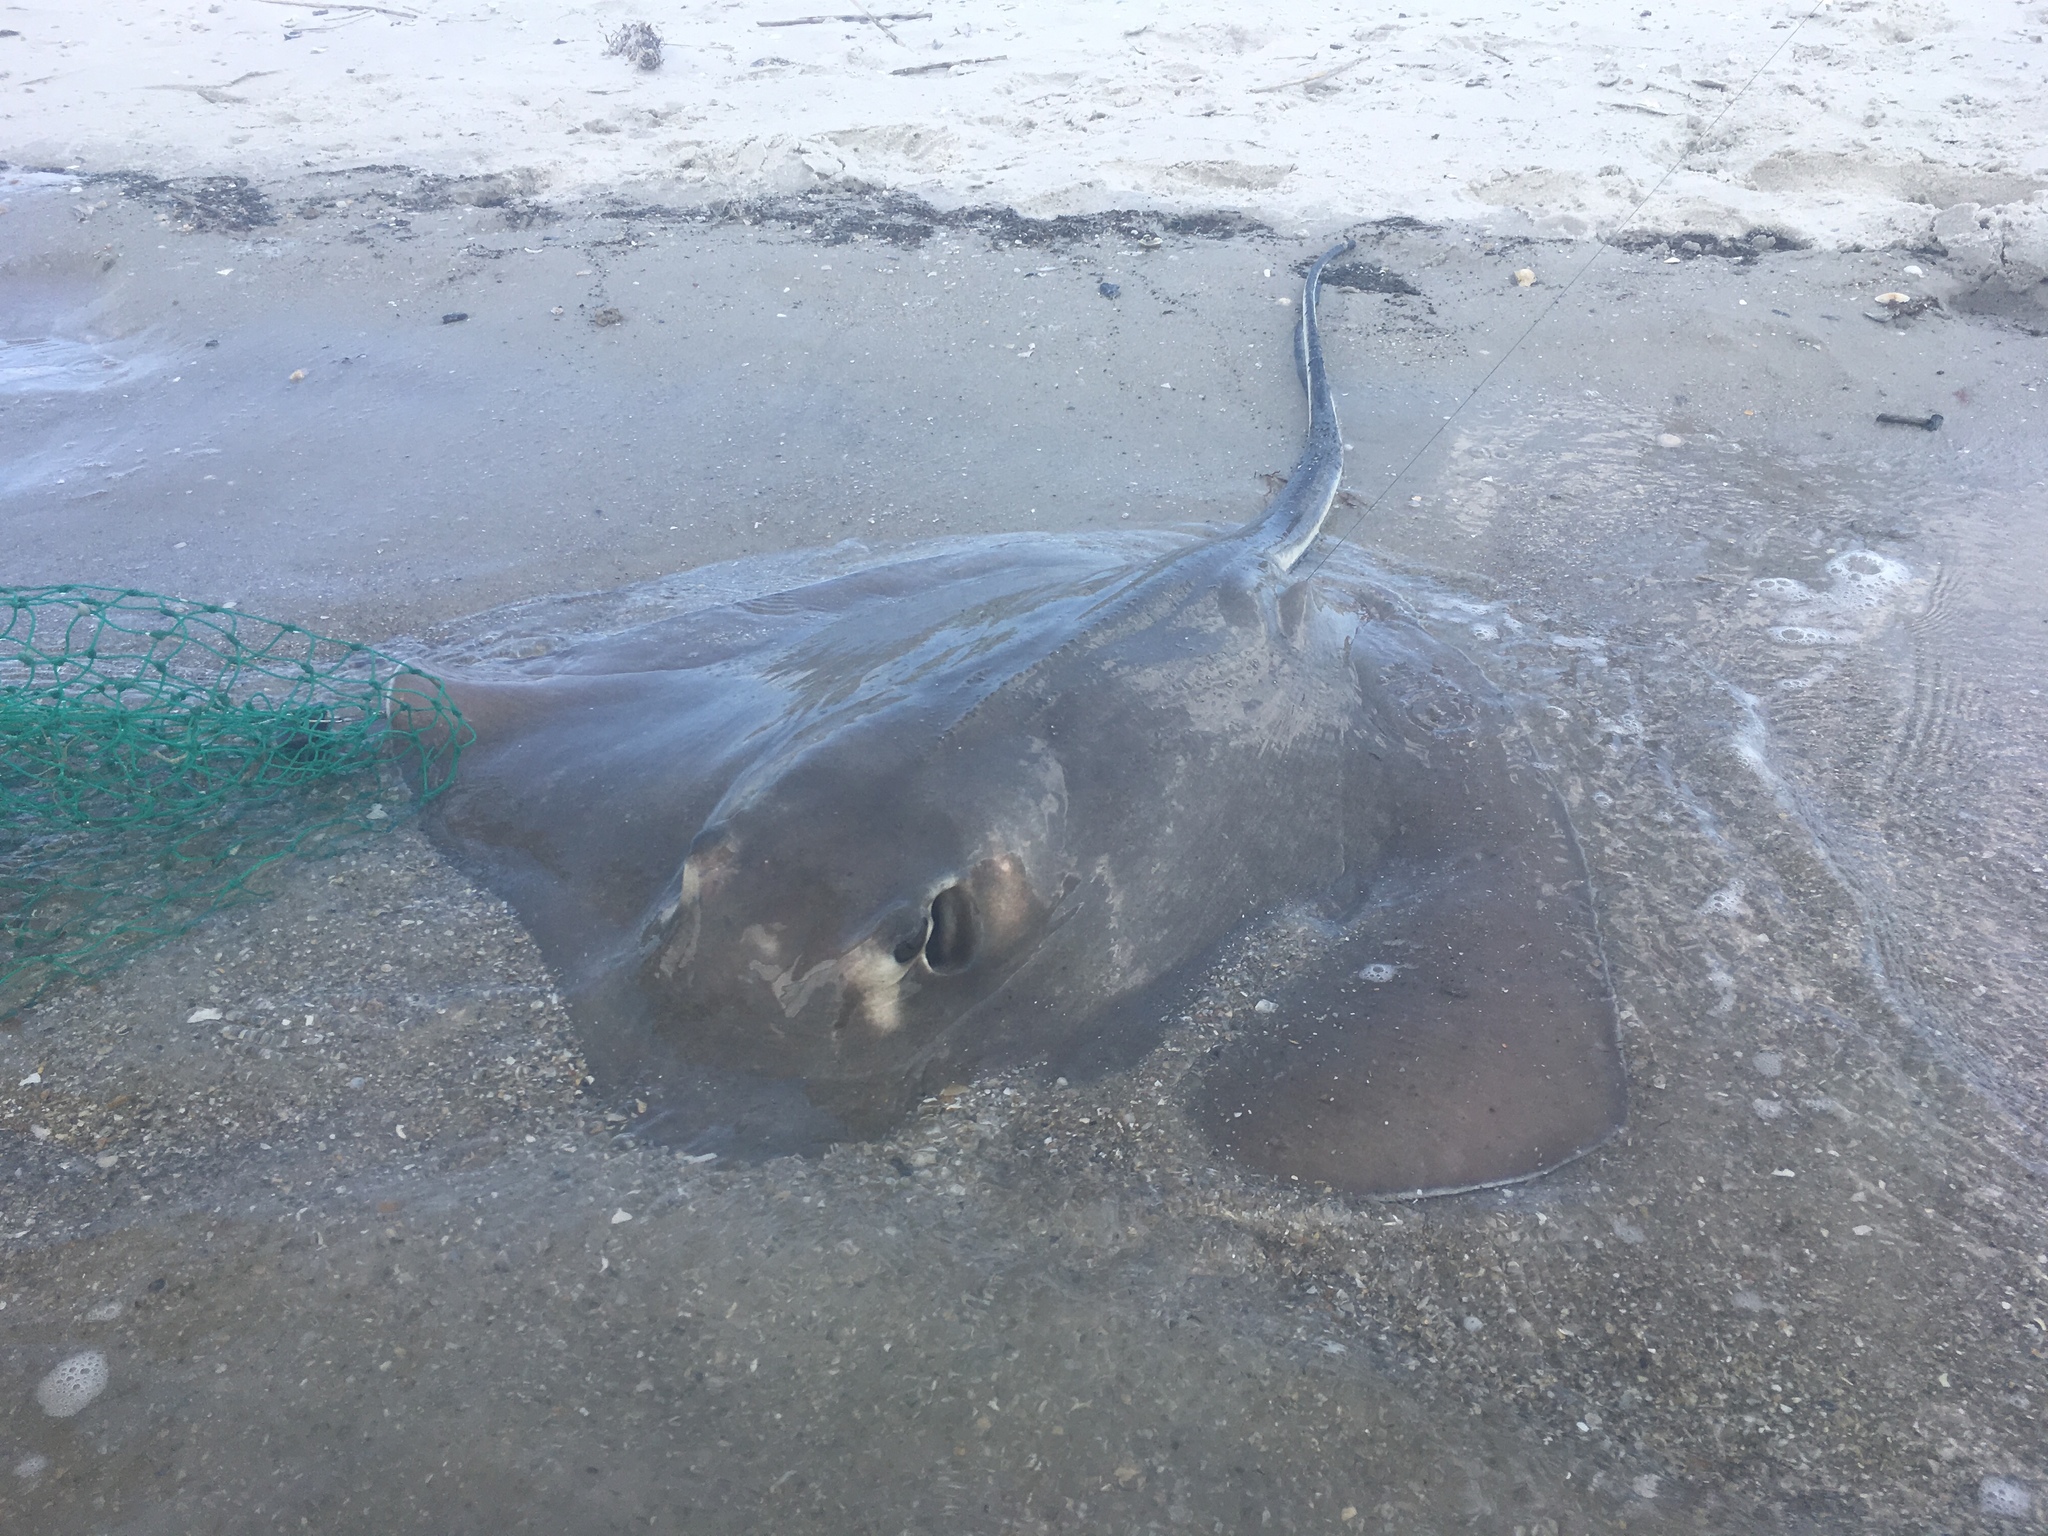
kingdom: Animalia
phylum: Chordata
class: Elasmobranchii
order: Myliobatiformes
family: Dasyatidae
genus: Hypanus
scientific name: Hypanus americanus
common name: Southern stingray
